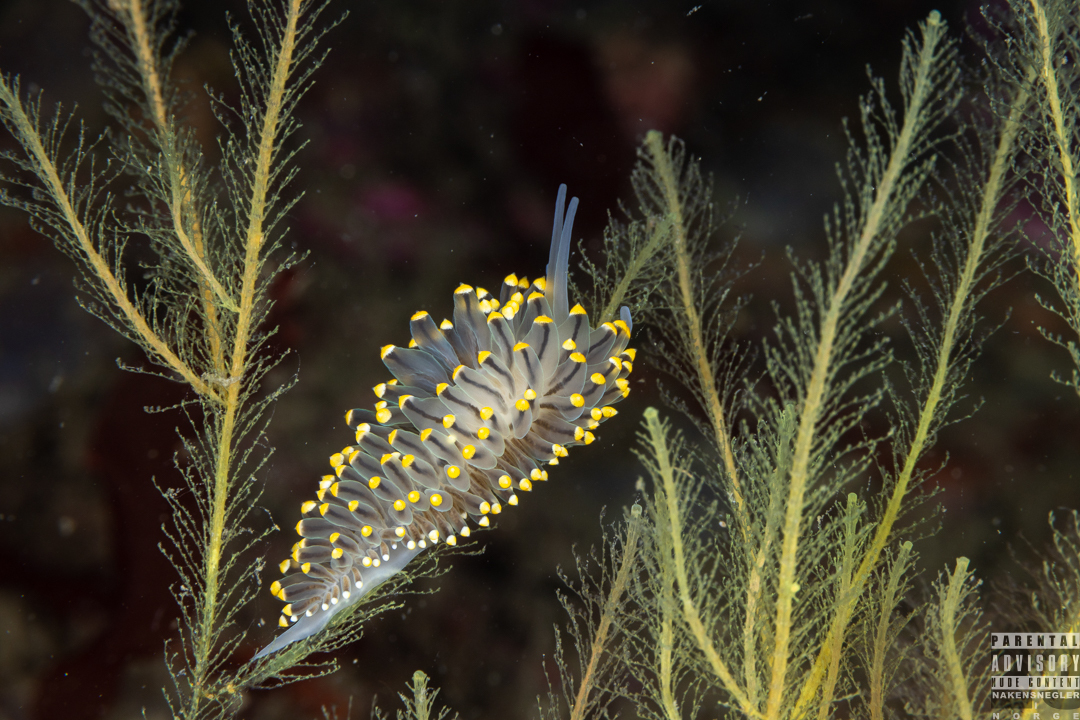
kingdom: Animalia
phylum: Mollusca
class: Gastropoda
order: Nudibranchia
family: Eubranchidae
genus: Eubranchus
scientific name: Eubranchus tricolor
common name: Painted balloon aeolis
